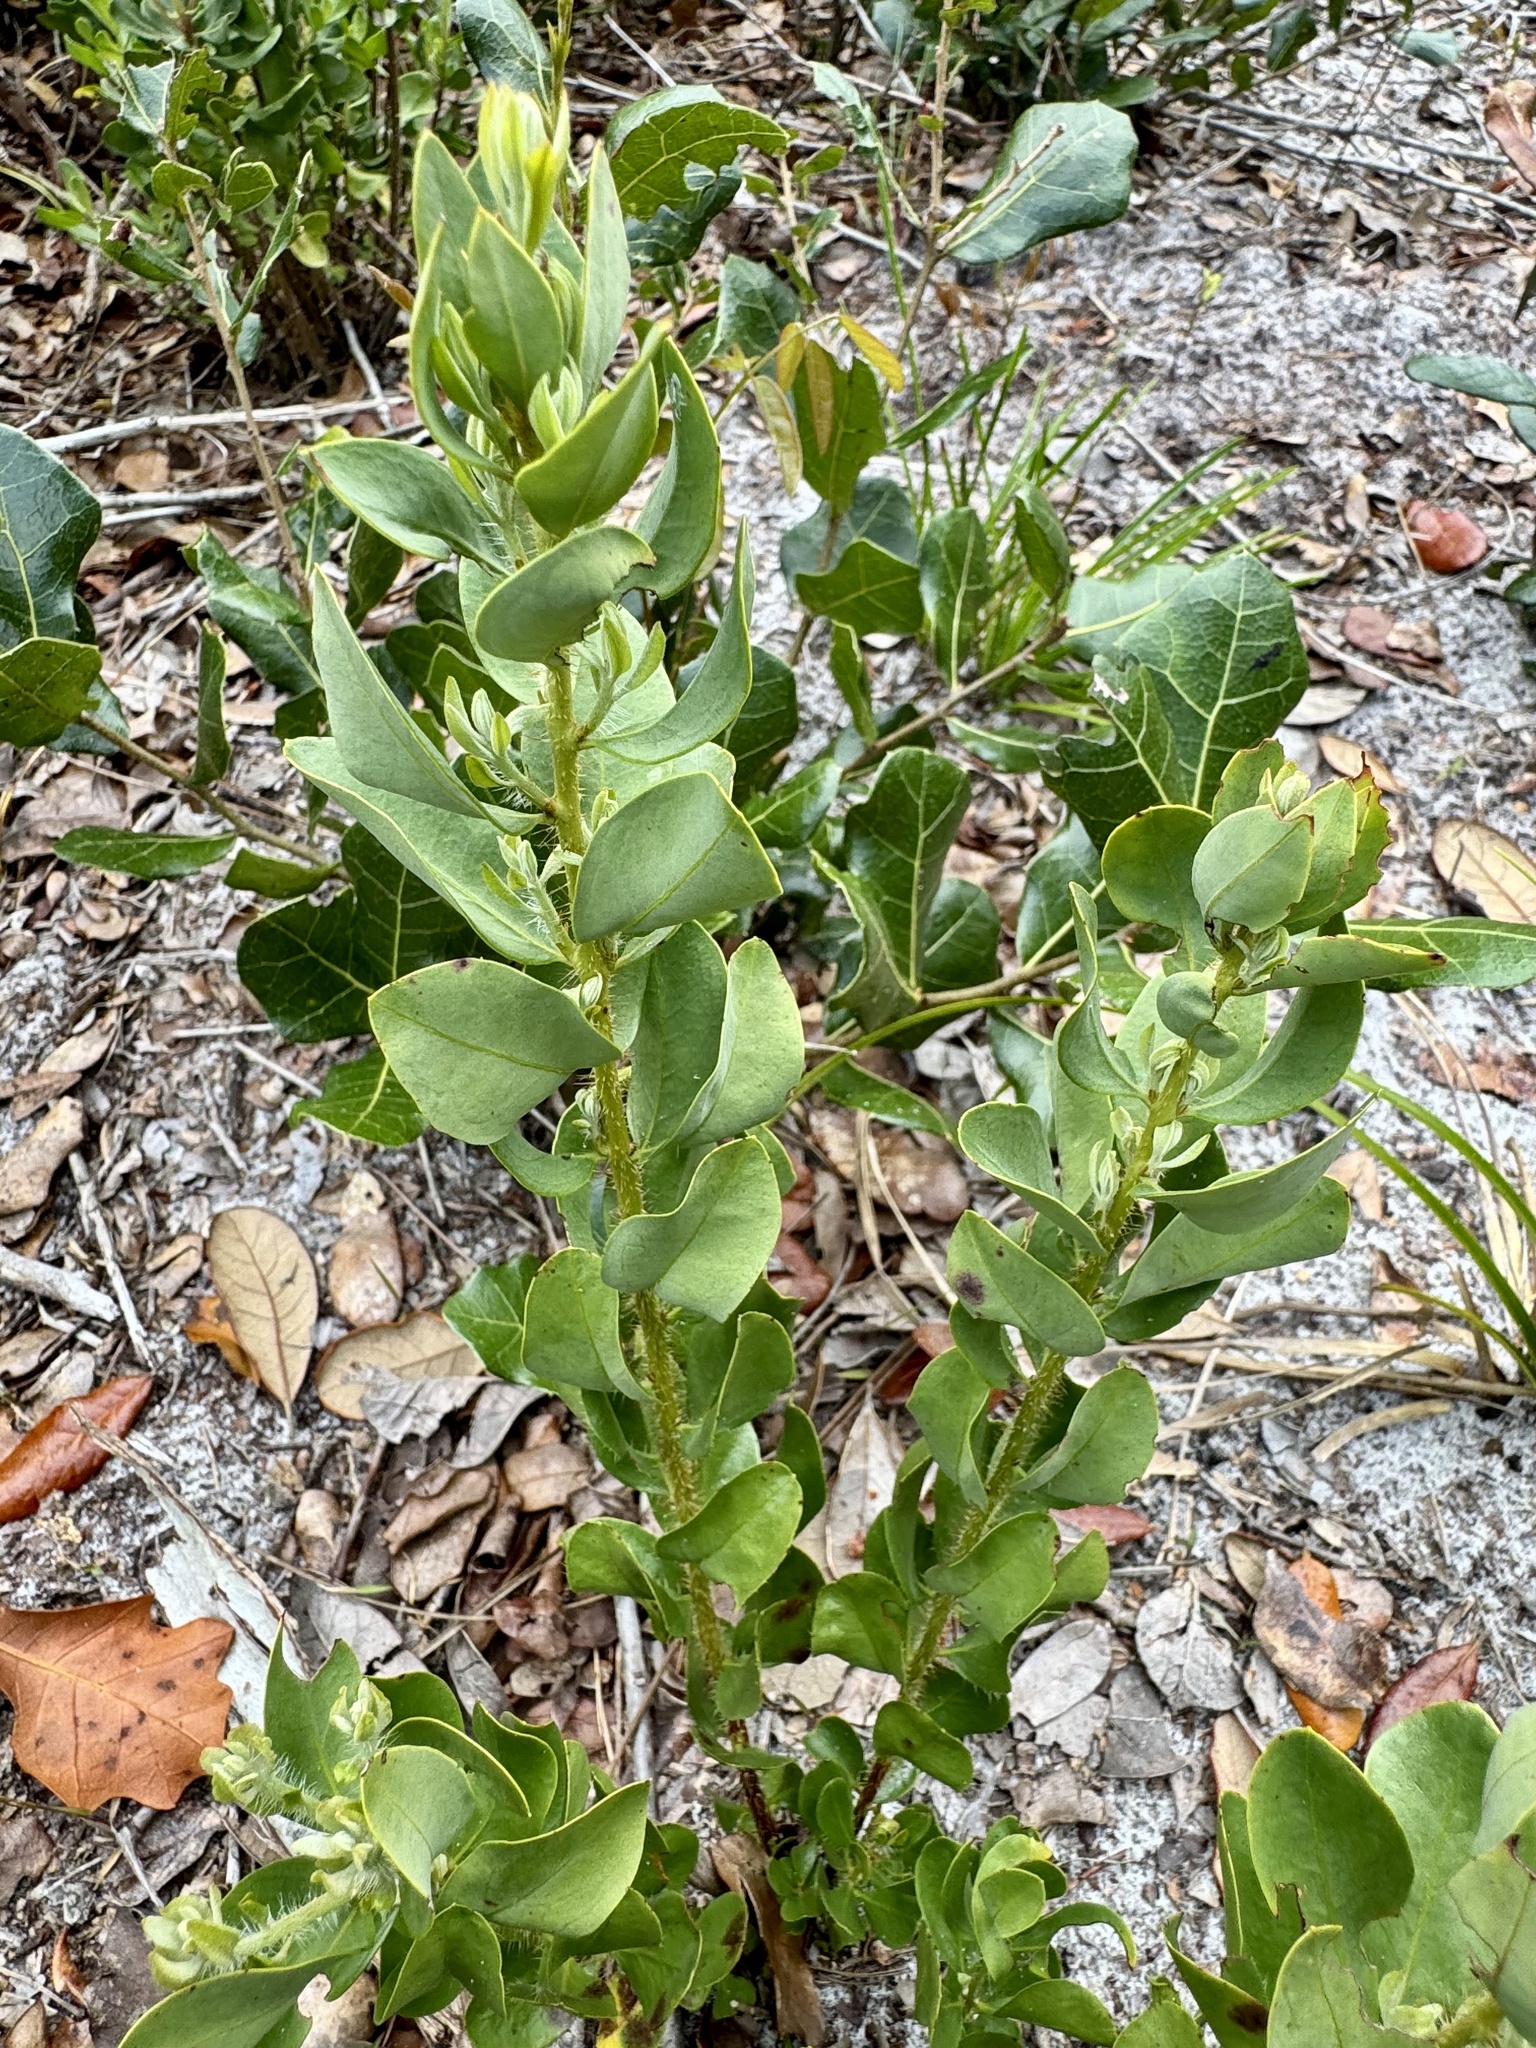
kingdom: Plantae
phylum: Tracheophyta
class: Magnoliopsida
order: Ericales
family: Ericaceae
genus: Bejaria
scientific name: Bejaria racemosa
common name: Tarflower
